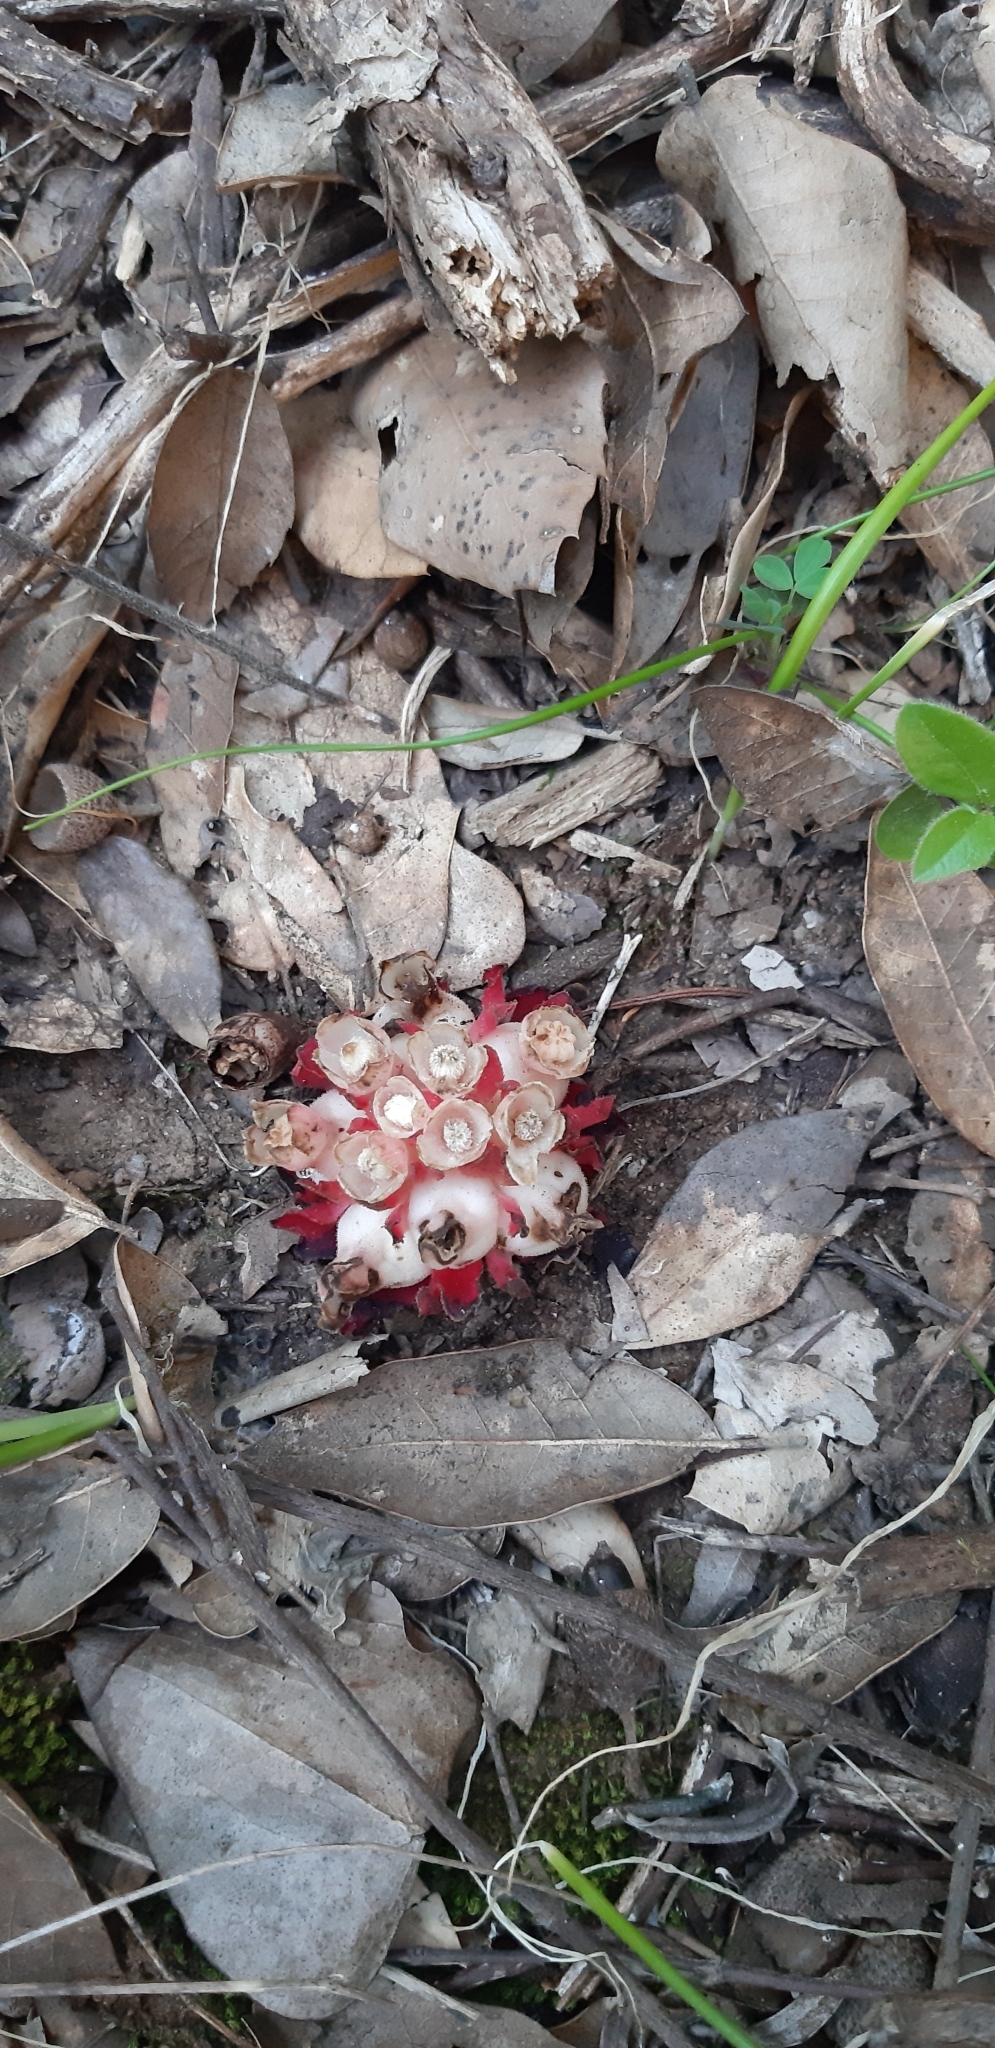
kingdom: Plantae
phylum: Tracheophyta
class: Magnoliopsida
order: Malvales
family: Cytinaceae
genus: Cytinus
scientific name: Cytinus ruber
